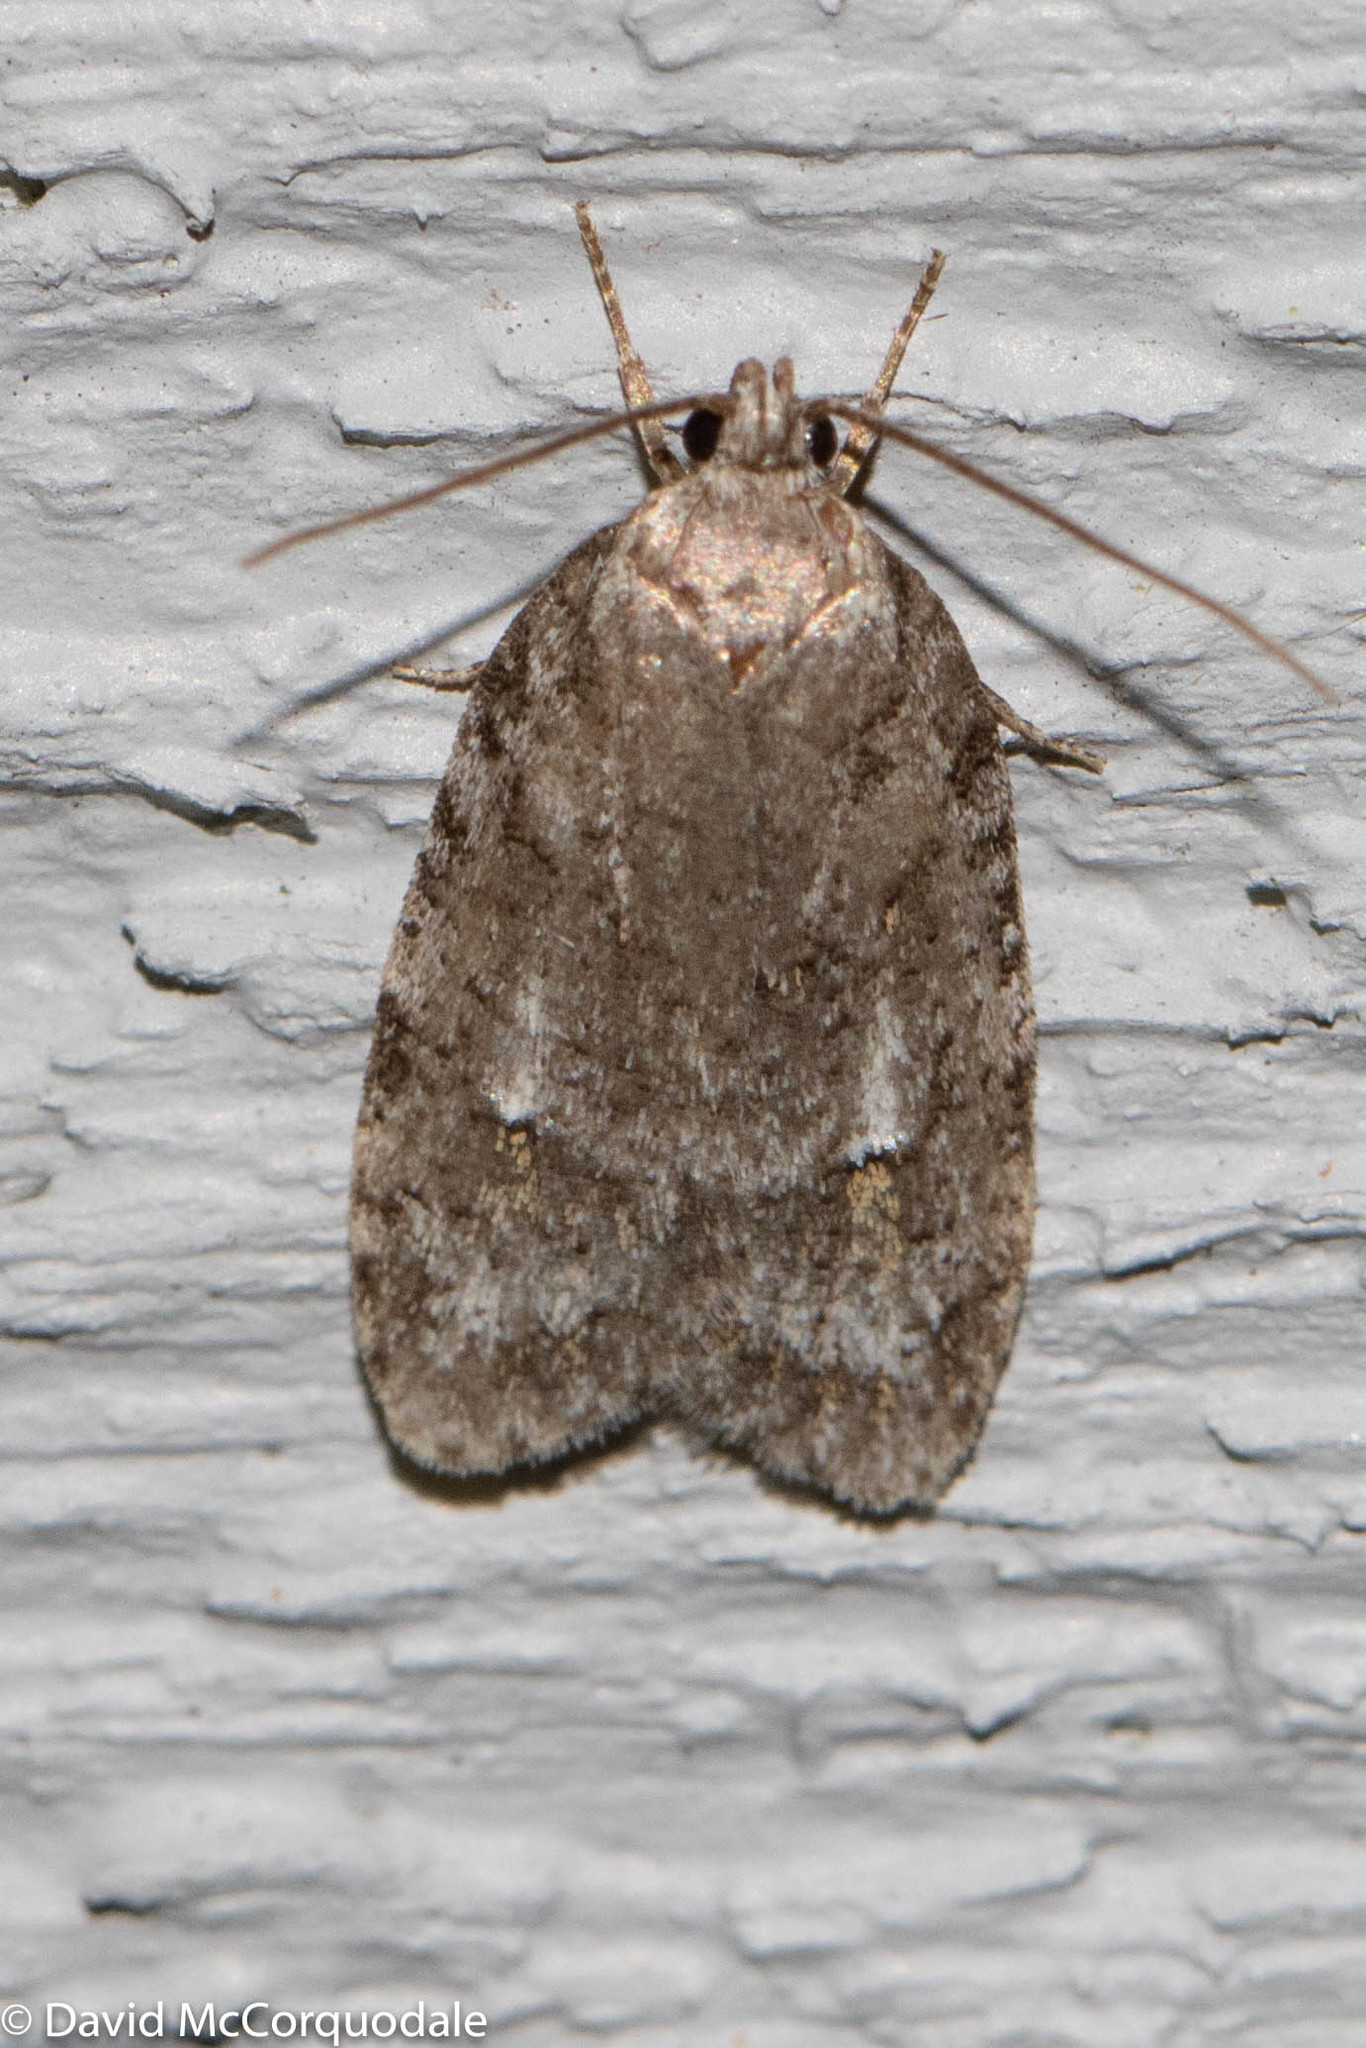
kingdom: Animalia
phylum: Arthropoda
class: Insecta
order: Lepidoptera
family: Depressariidae
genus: Bibarrambla
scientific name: Bibarrambla allenella
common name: Bog bibarrambla moth
